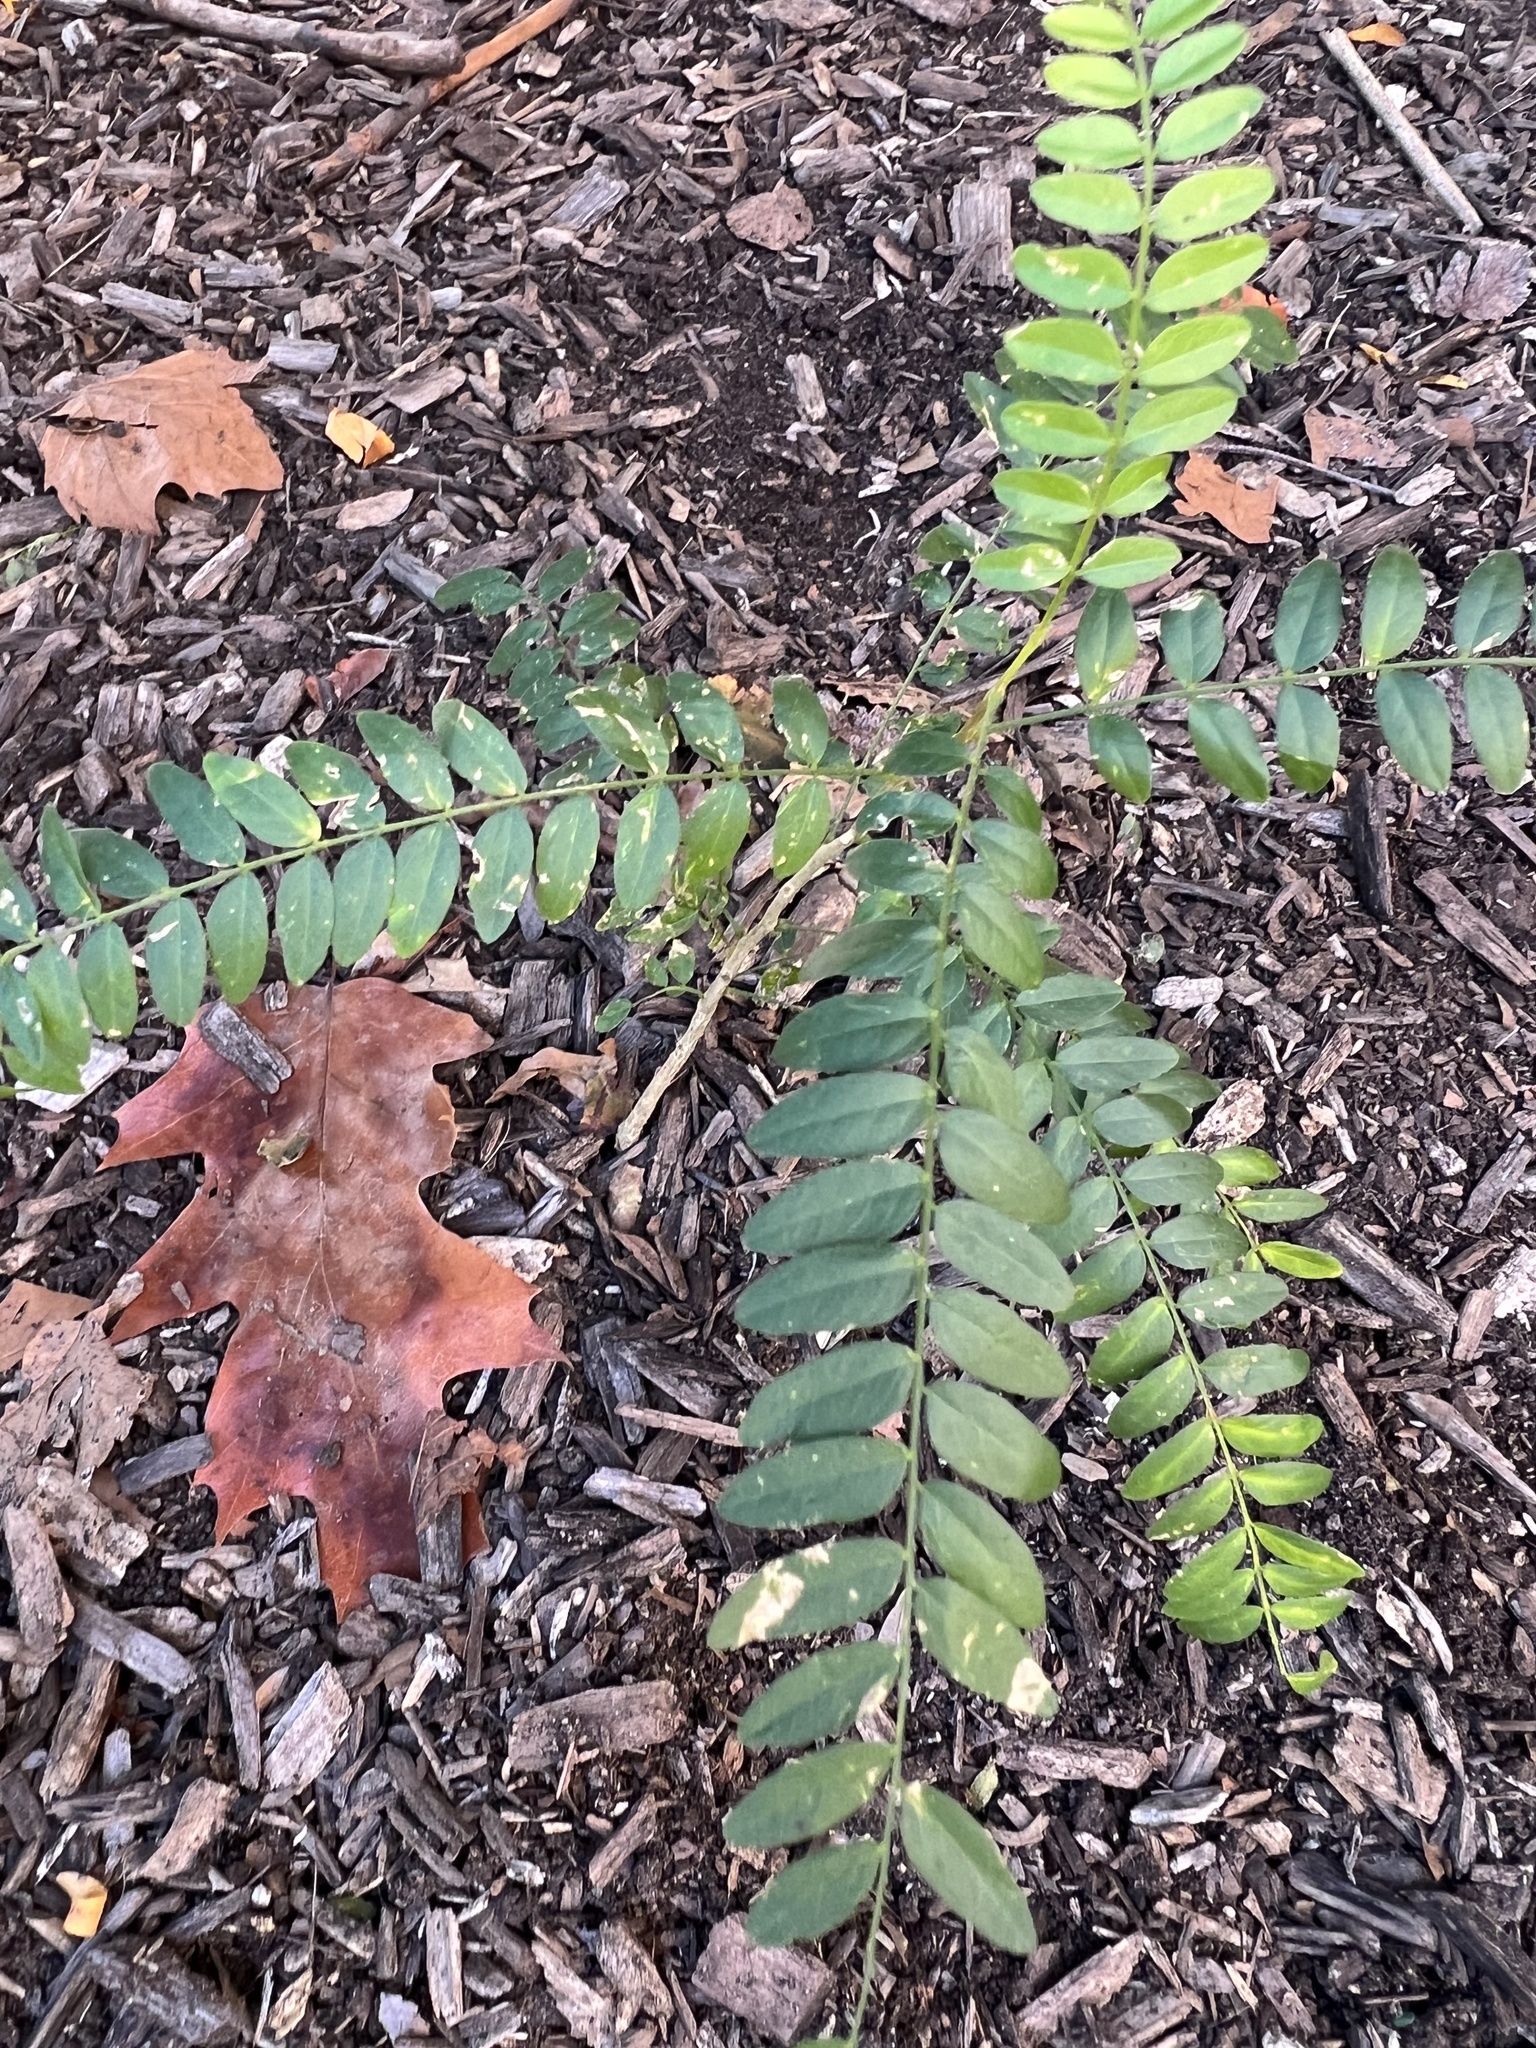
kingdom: Plantae
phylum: Tracheophyta
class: Magnoliopsida
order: Fabales
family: Fabaceae
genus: Gleditsia
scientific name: Gleditsia triacanthos
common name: Common honeylocust
